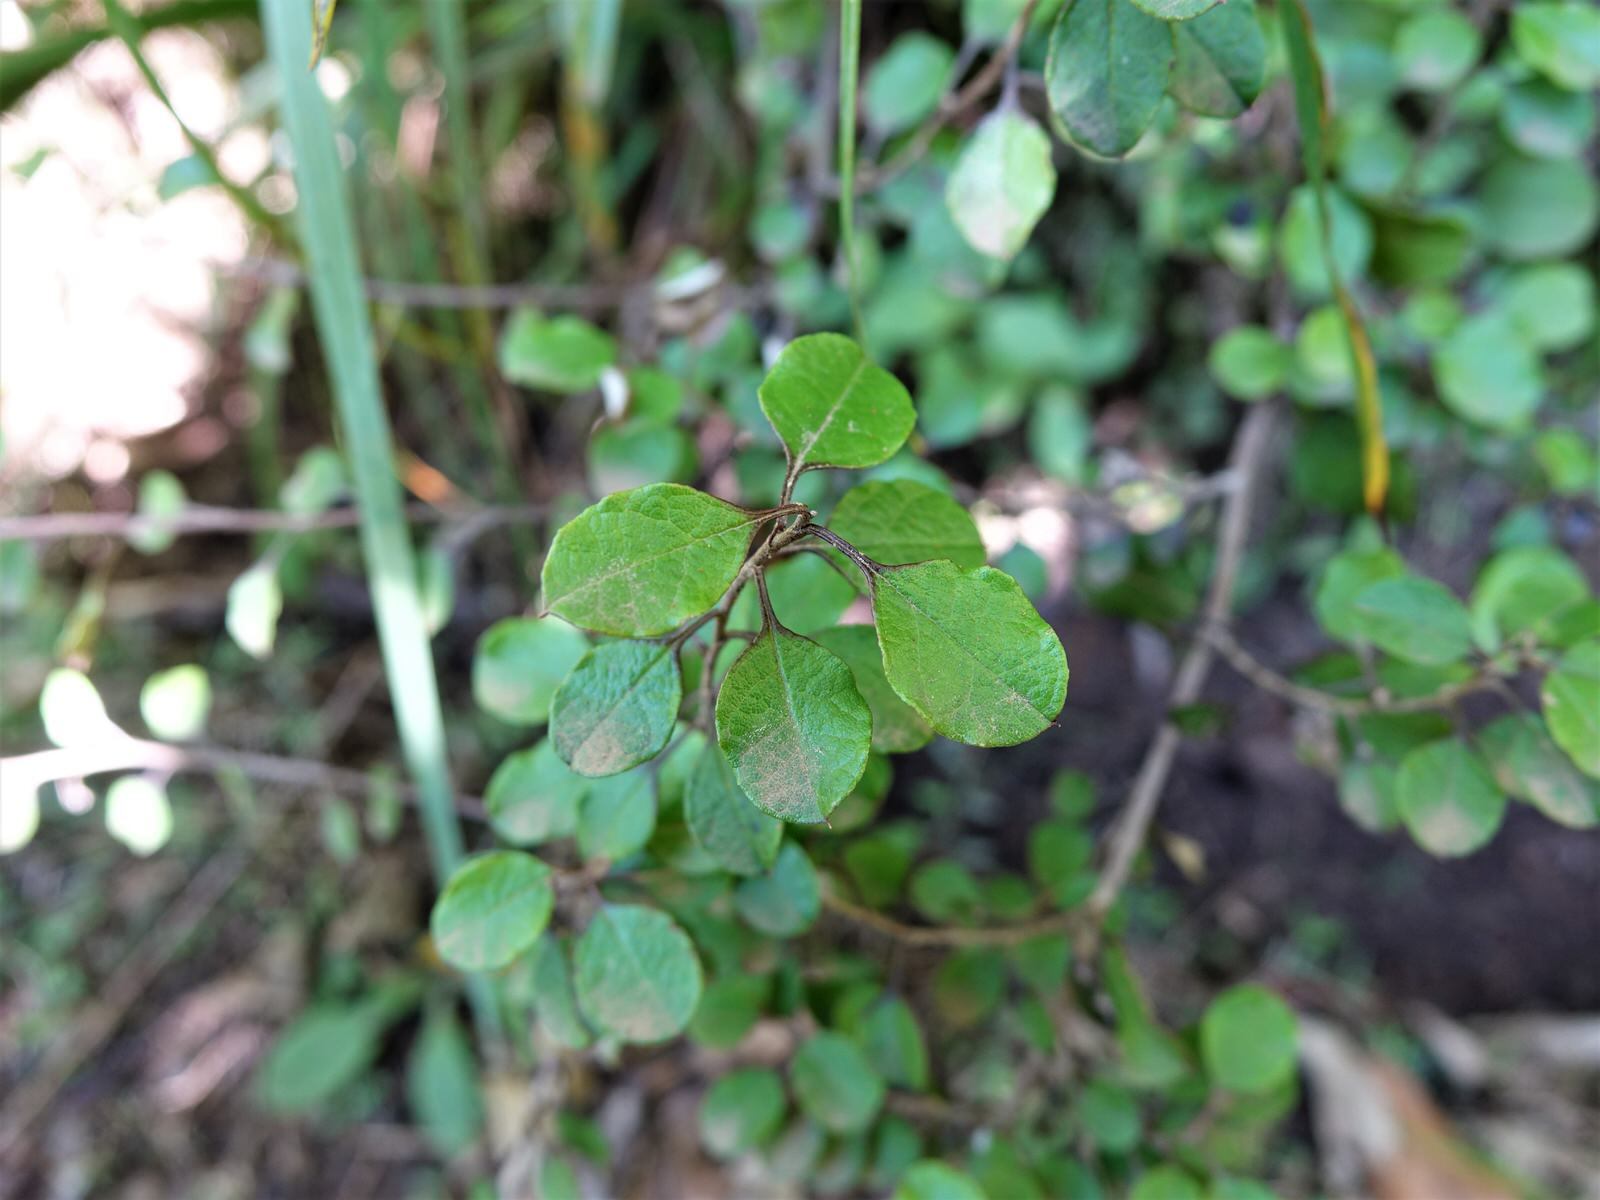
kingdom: Plantae
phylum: Tracheophyta
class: Magnoliopsida
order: Asterales
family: Asteraceae
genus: Ozothamnus
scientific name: Ozothamnus glomeratus
